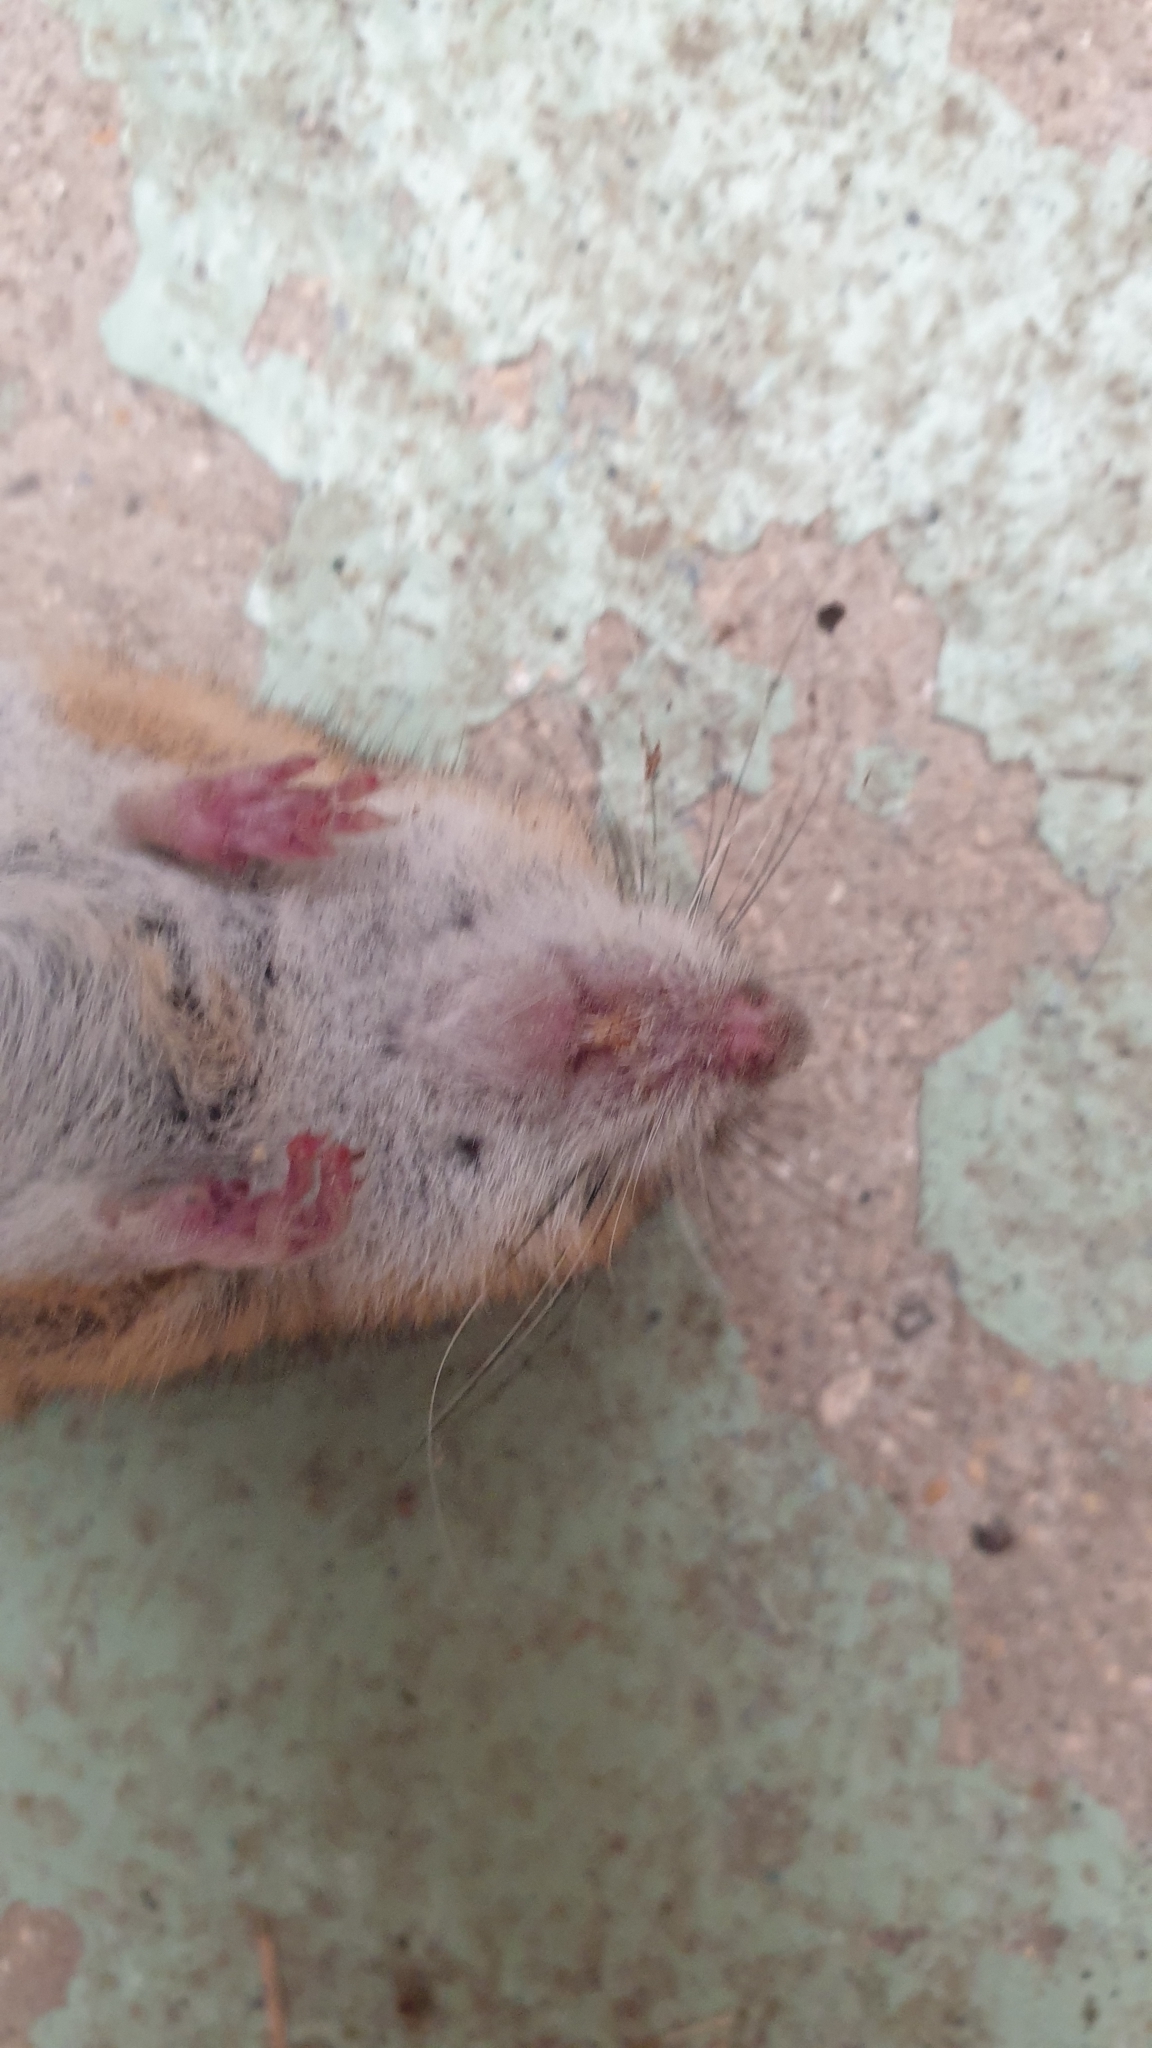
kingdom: Animalia
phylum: Chordata
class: Mammalia
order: Rodentia
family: Muridae
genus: Apodemus
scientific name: Apodemus sylvaticus
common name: Wood mouse
